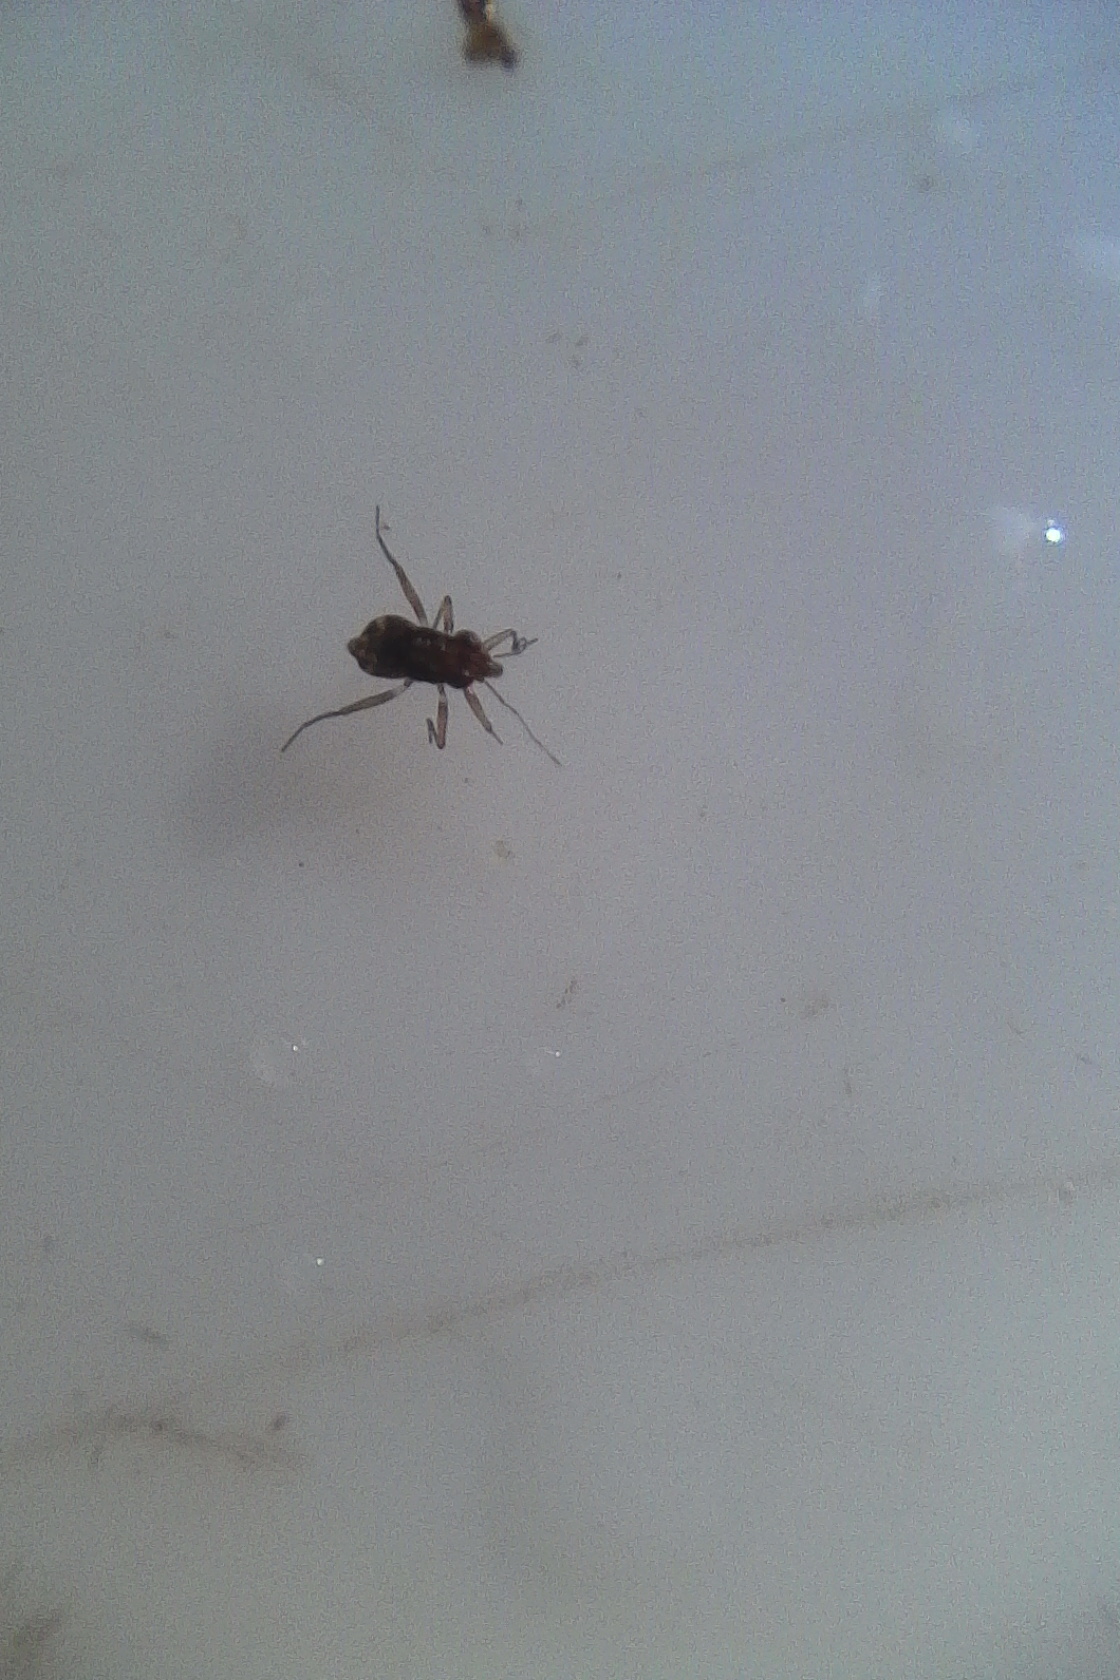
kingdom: Animalia
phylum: Arthropoda
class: Insecta
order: Hemiptera
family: Mesoveliidae
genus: Mniovelia
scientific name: Mniovelia kuscheli
